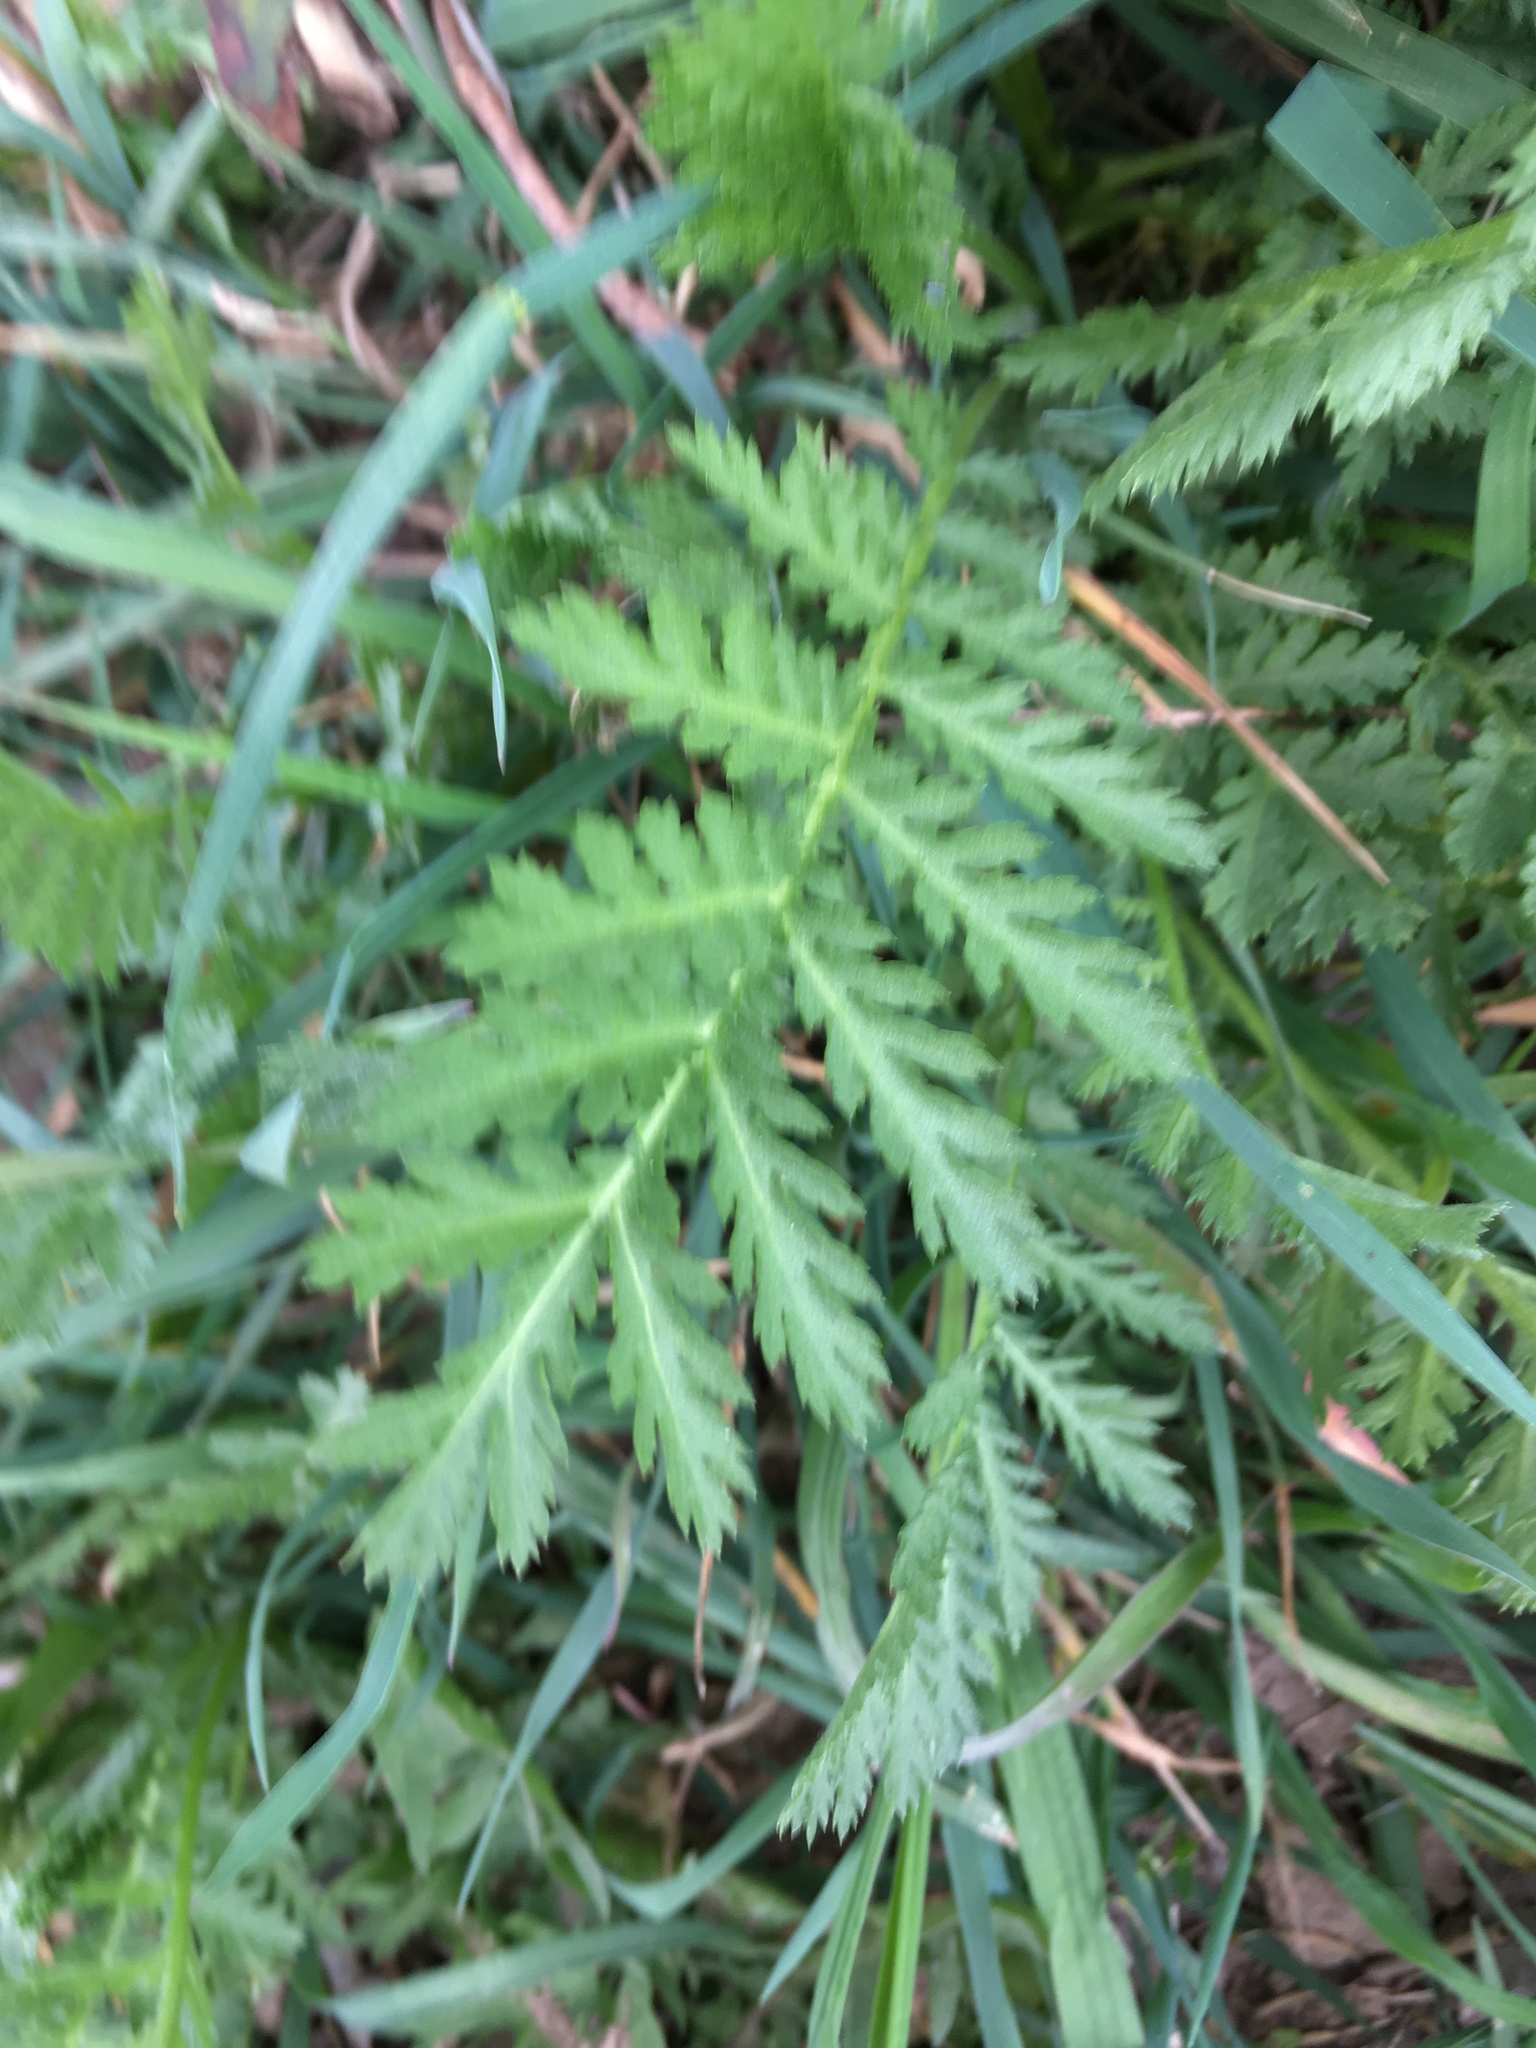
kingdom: Plantae
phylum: Tracheophyta
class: Magnoliopsida
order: Asterales
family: Asteraceae
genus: Tanacetum
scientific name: Tanacetum vulgare
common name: Common tansy
